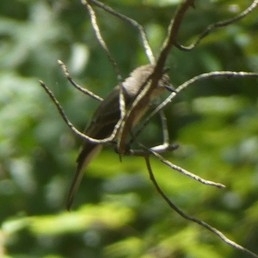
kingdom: Animalia
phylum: Chordata
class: Aves
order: Passeriformes
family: Tyrannidae
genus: Sayornis
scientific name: Sayornis phoebe
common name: Eastern phoebe
